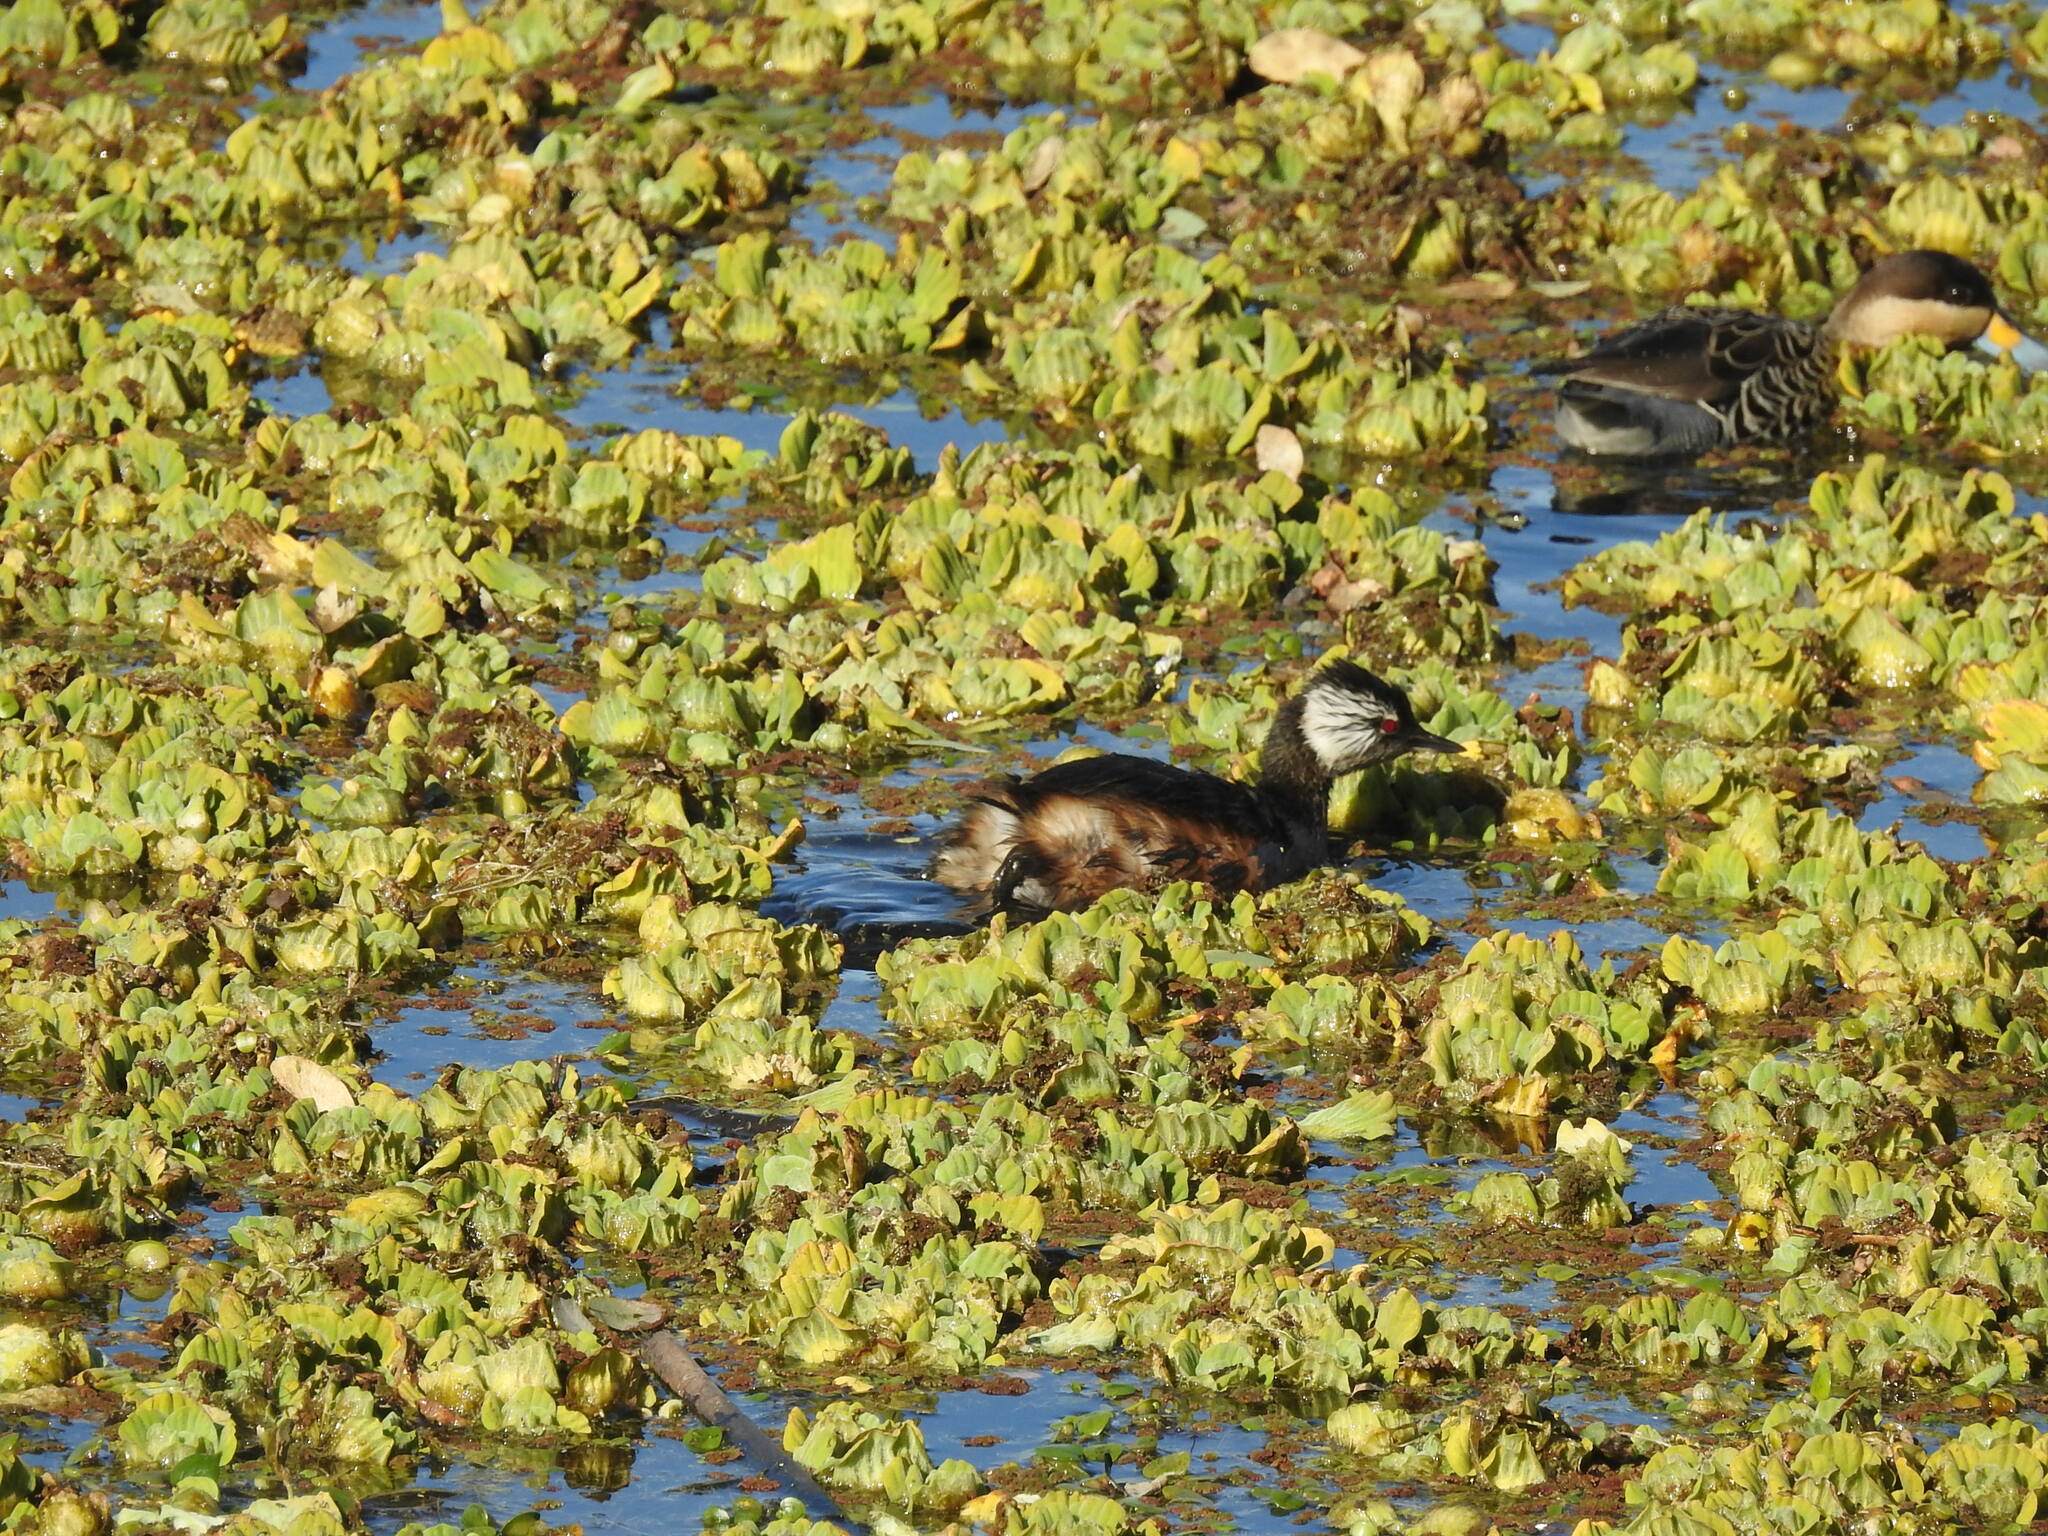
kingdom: Animalia
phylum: Chordata
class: Aves
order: Podicipediformes
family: Podicipedidae
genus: Rollandia
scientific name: Rollandia rolland
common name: White-tufted grebe
